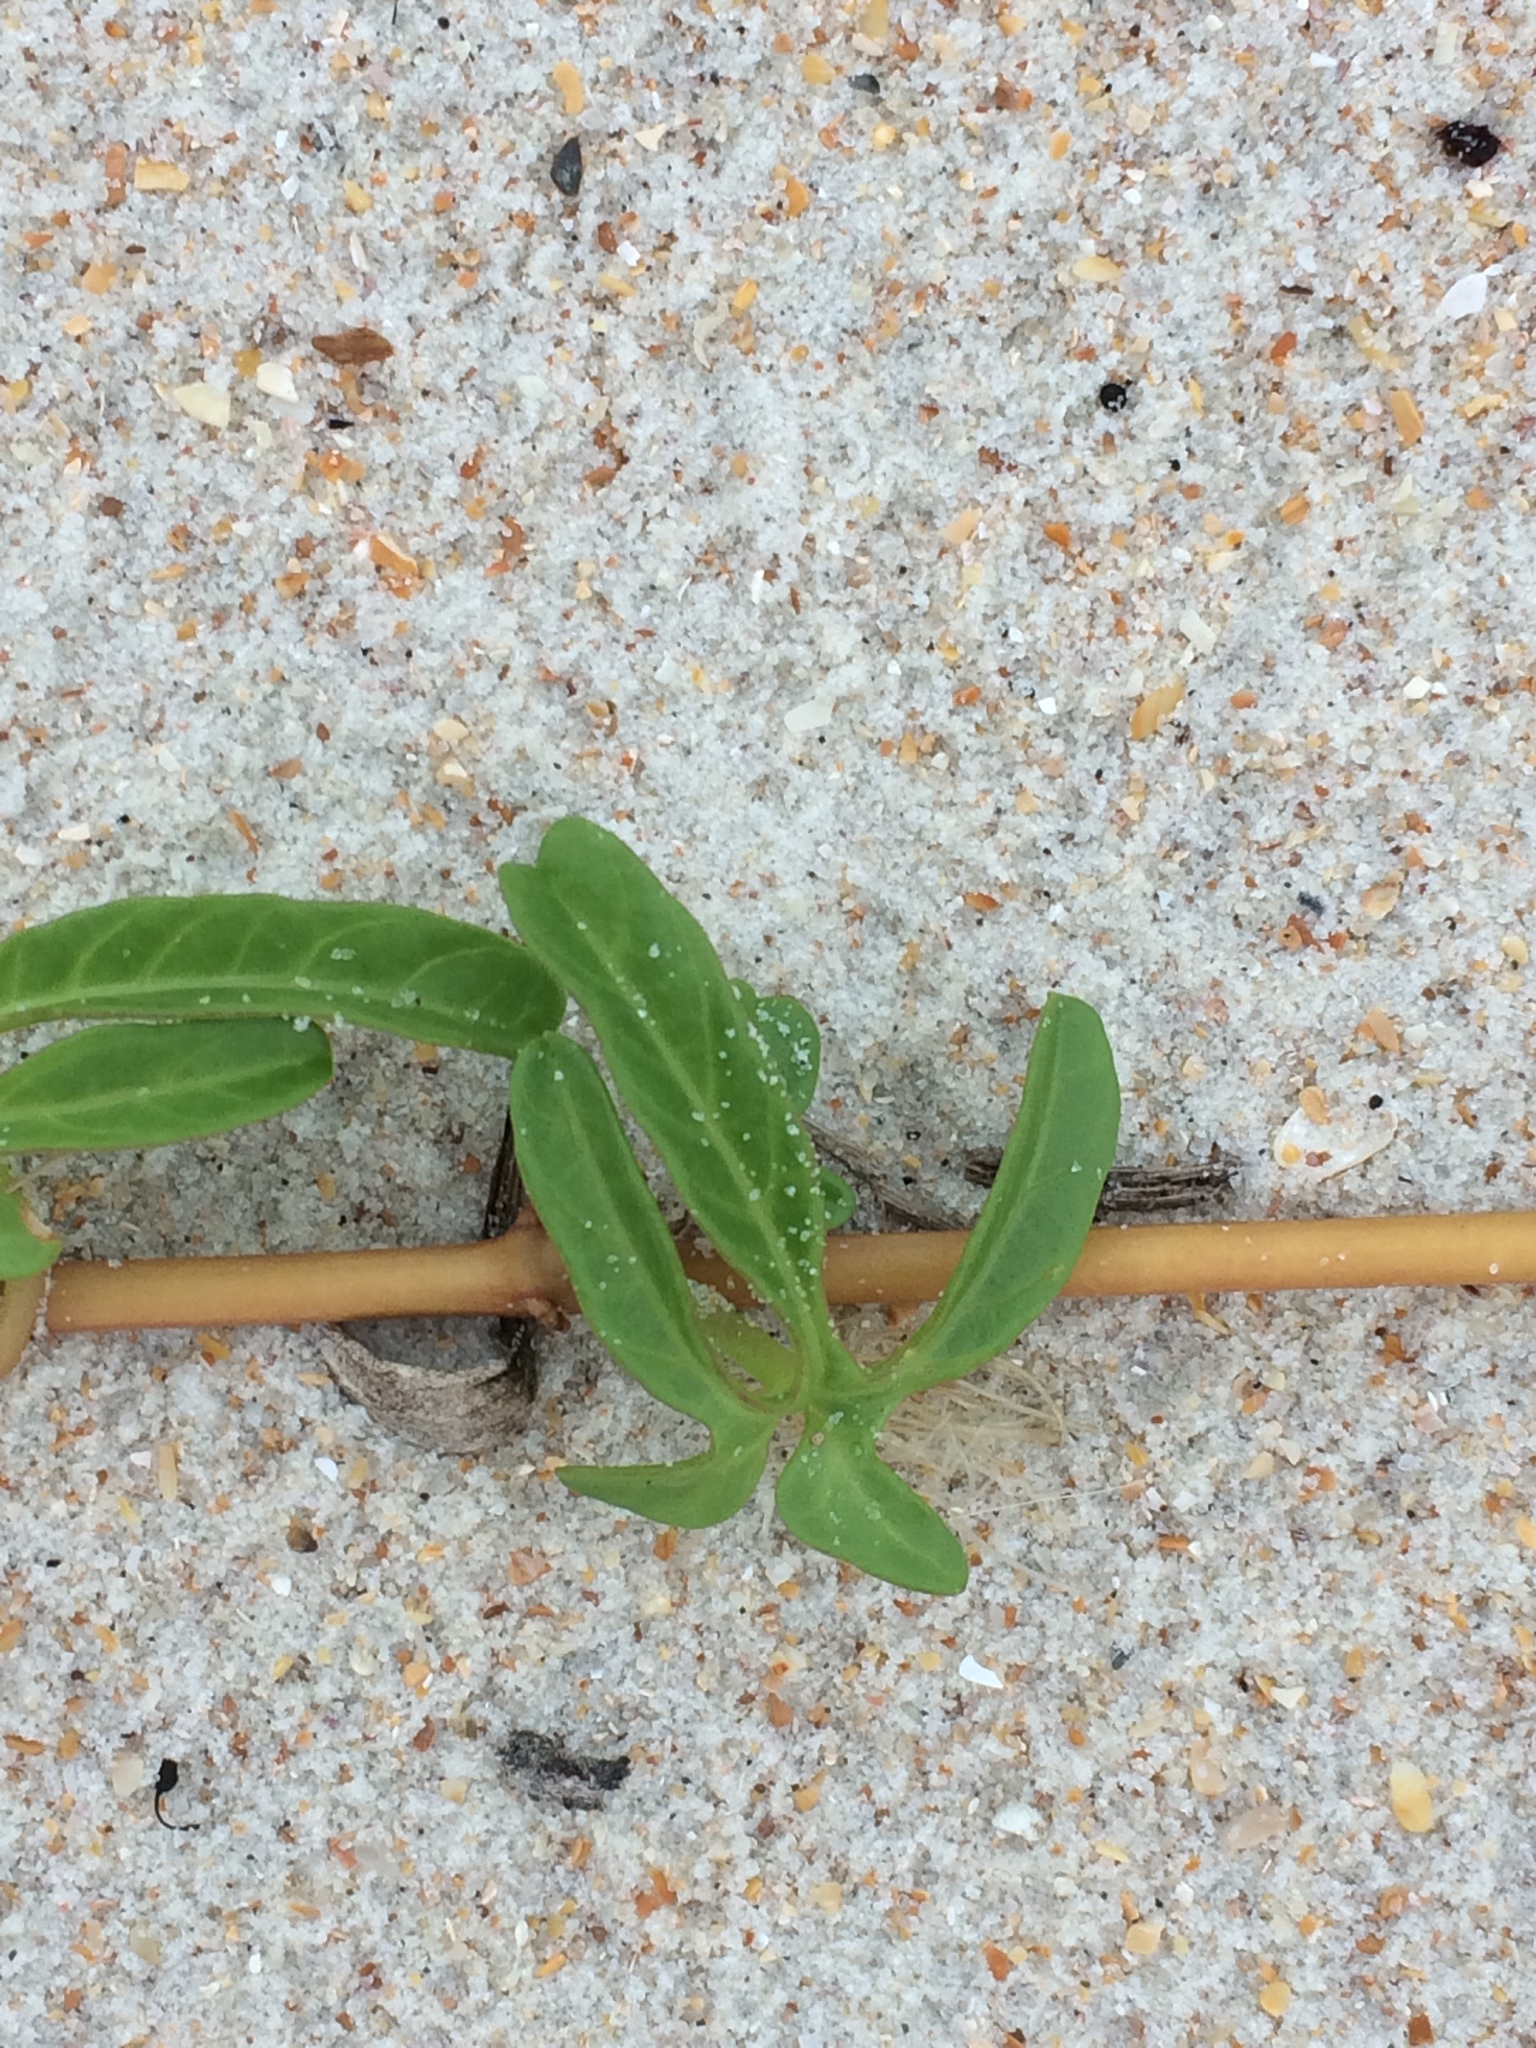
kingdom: Plantae
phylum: Tracheophyta
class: Magnoliopsida
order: Solanales
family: Convolvulaceae
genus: Ipomoea
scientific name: Ipomoea imperati
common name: Fiddle-leaf morning-glory
